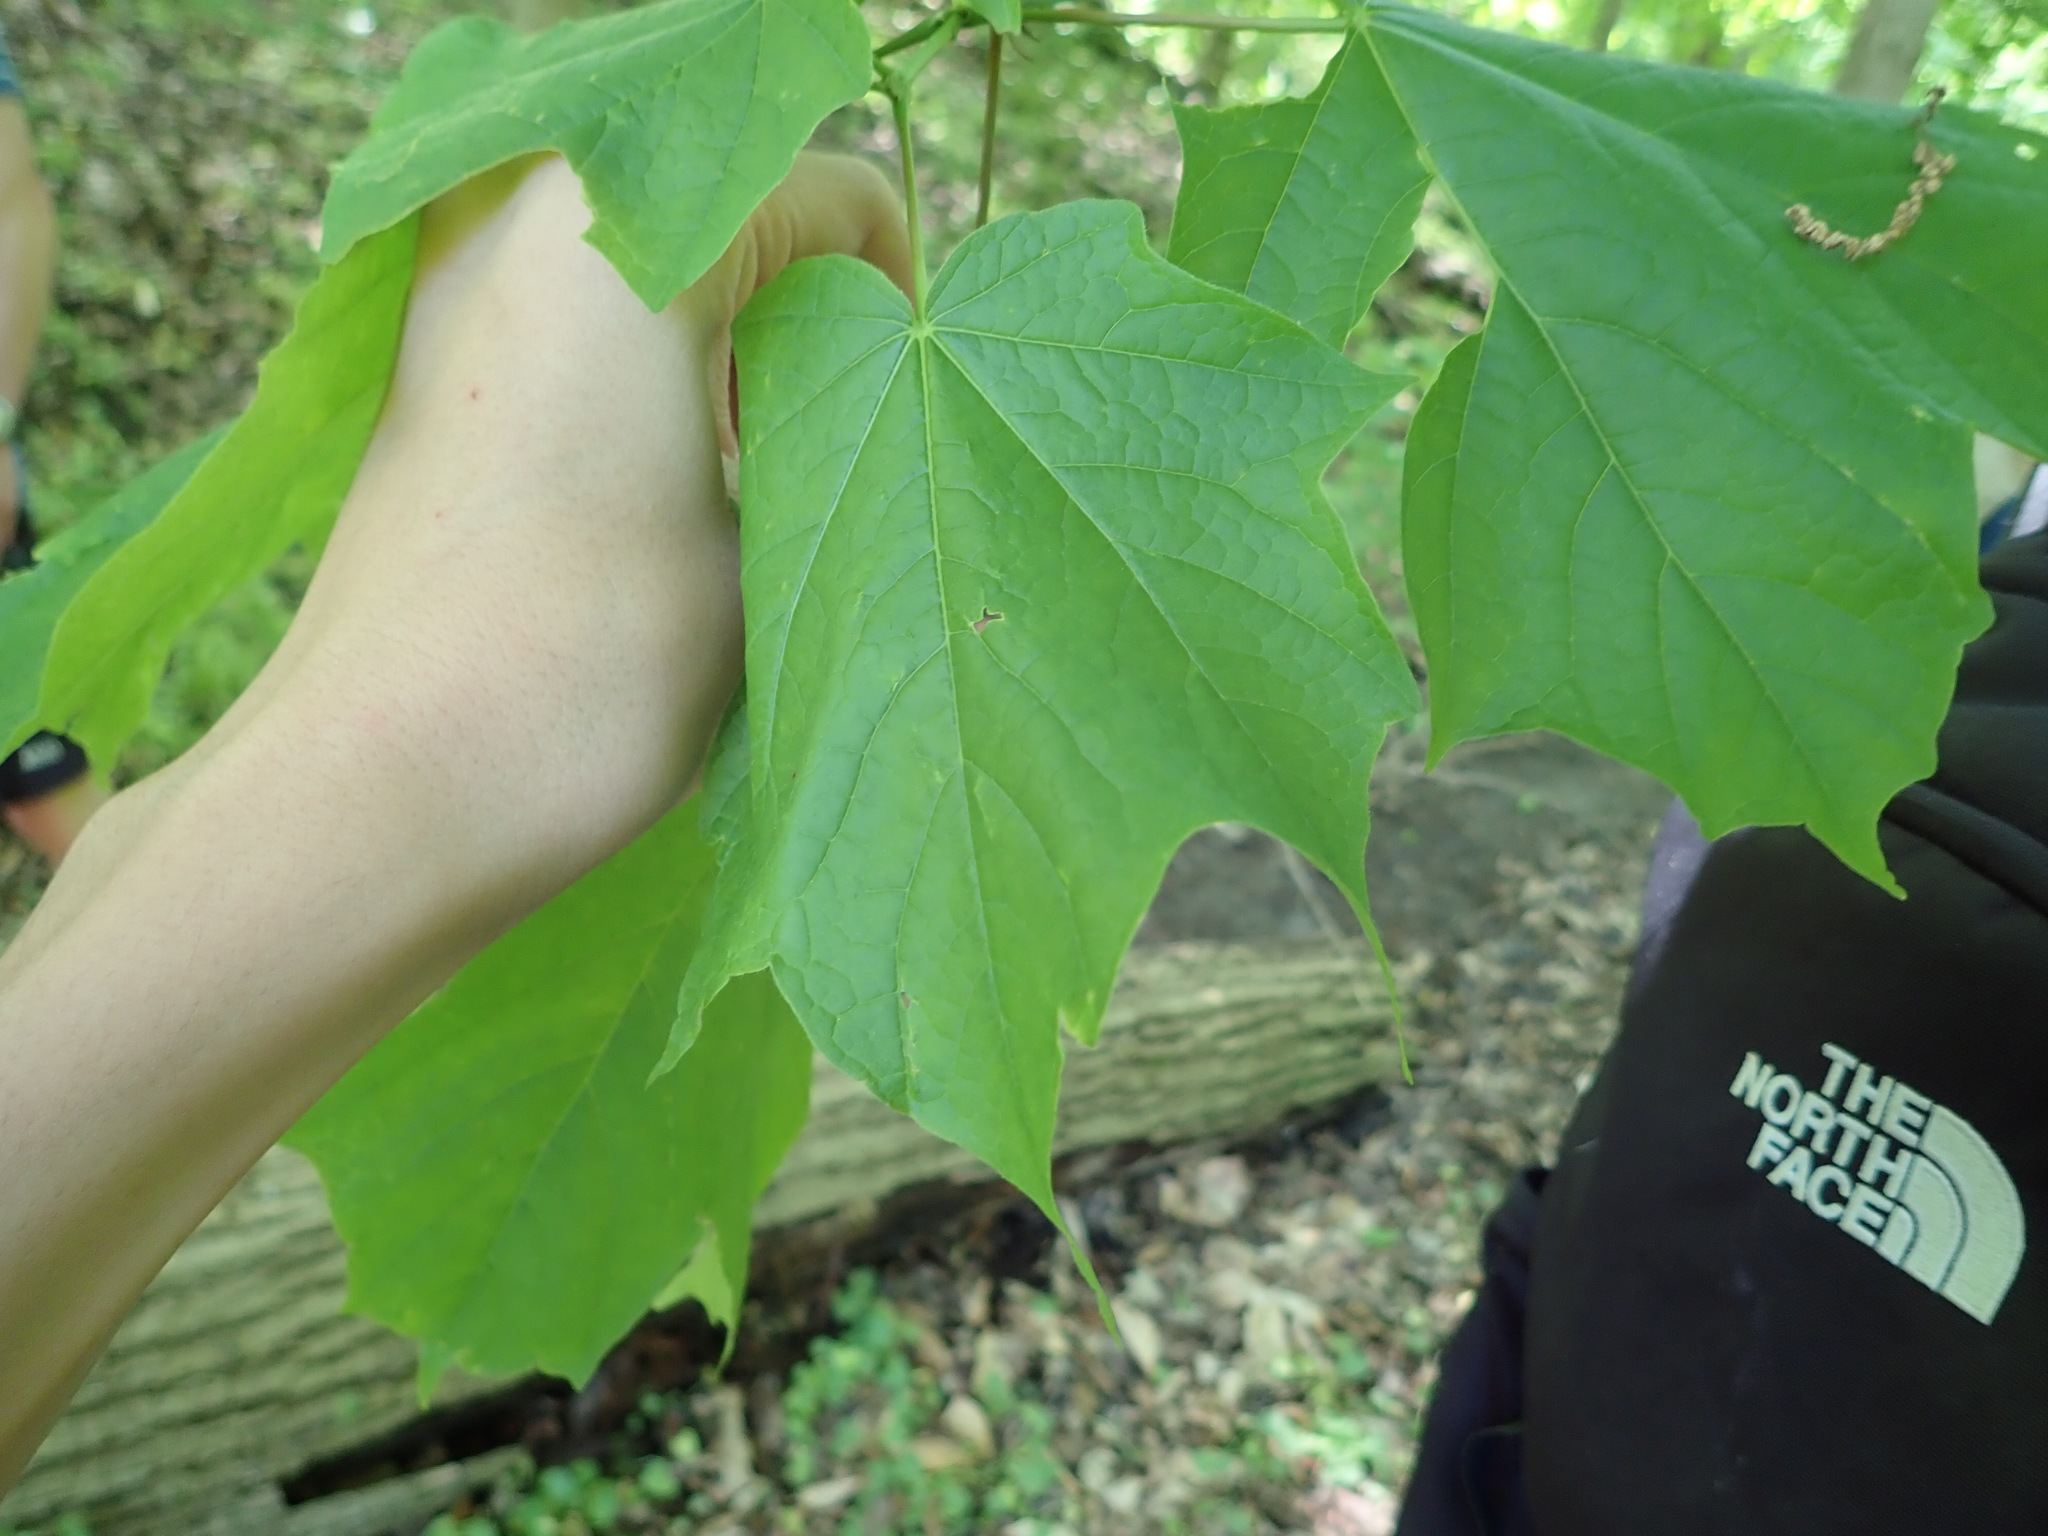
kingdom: Plantae
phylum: Tracheophyta
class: Magnoliopsida
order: Sapindales
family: Sapindaceae
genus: Acer
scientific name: Acer nigrum
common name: Black maple
